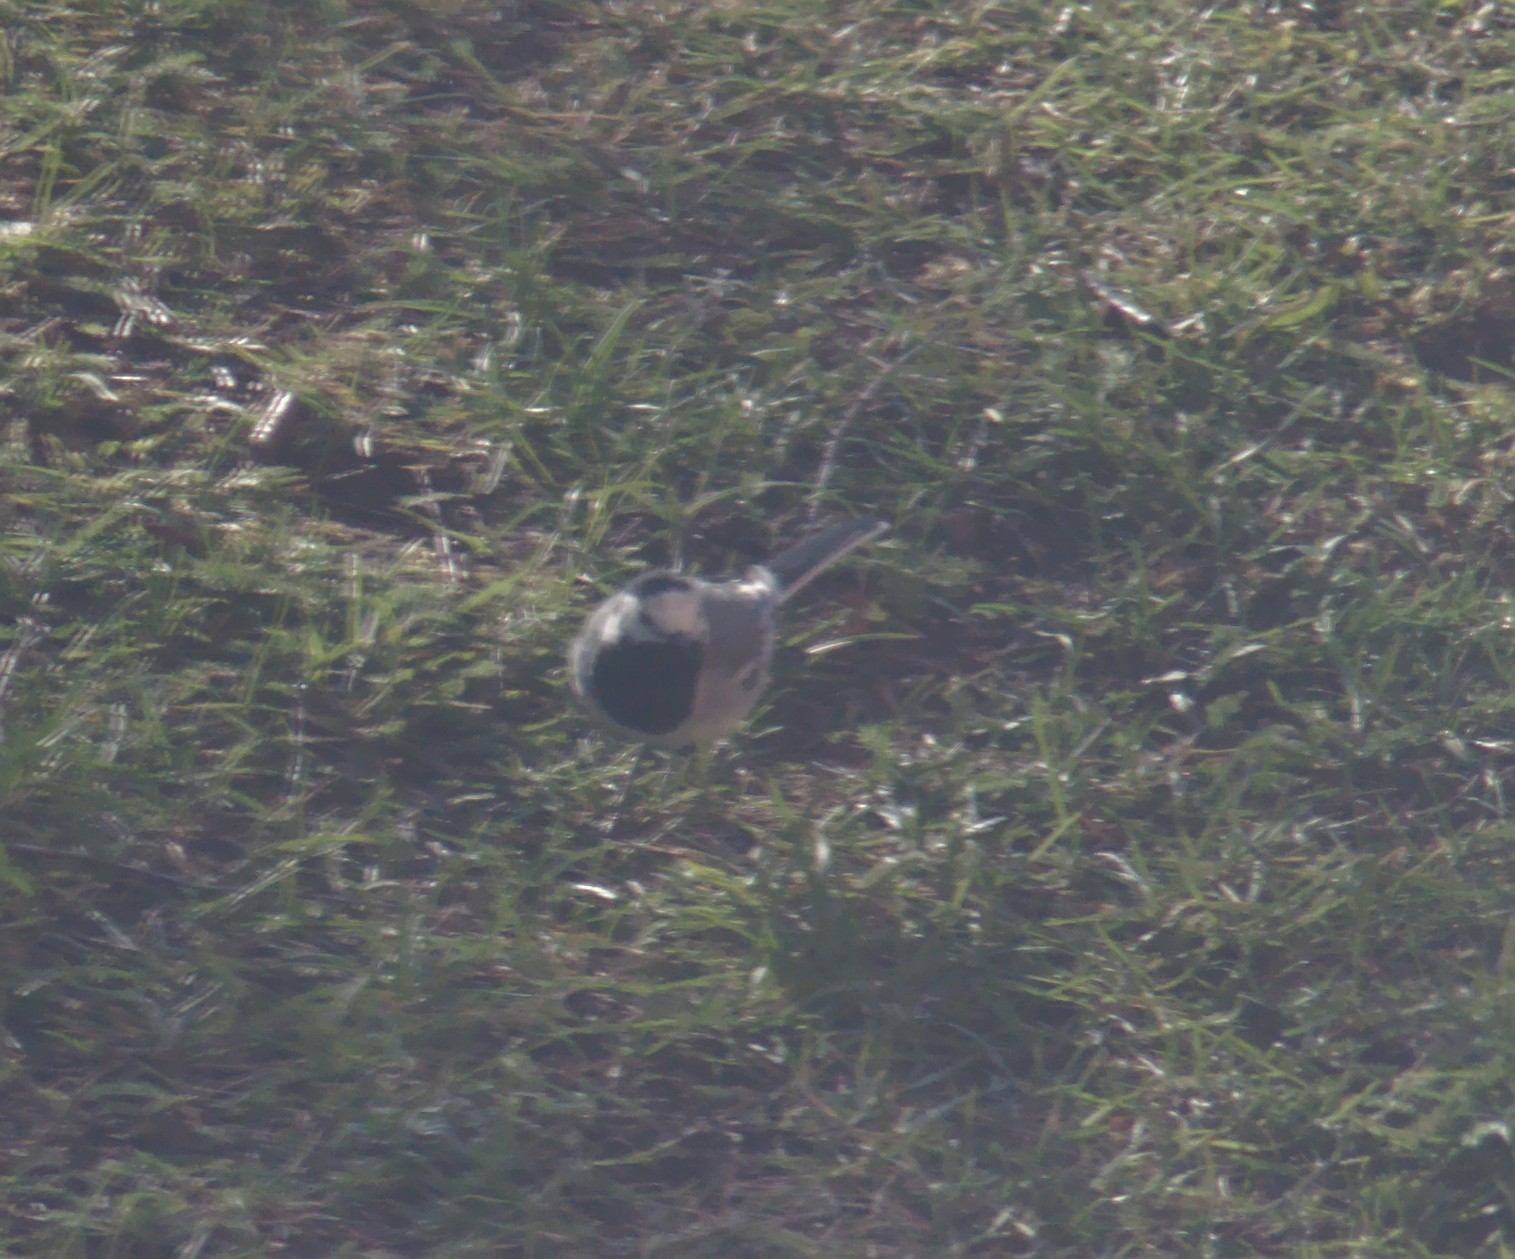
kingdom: Animalia
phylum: Chordata
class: Aves
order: Passeriformes
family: Motacillidae
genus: Motacilla
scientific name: Motacilla alba
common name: White wagtail
